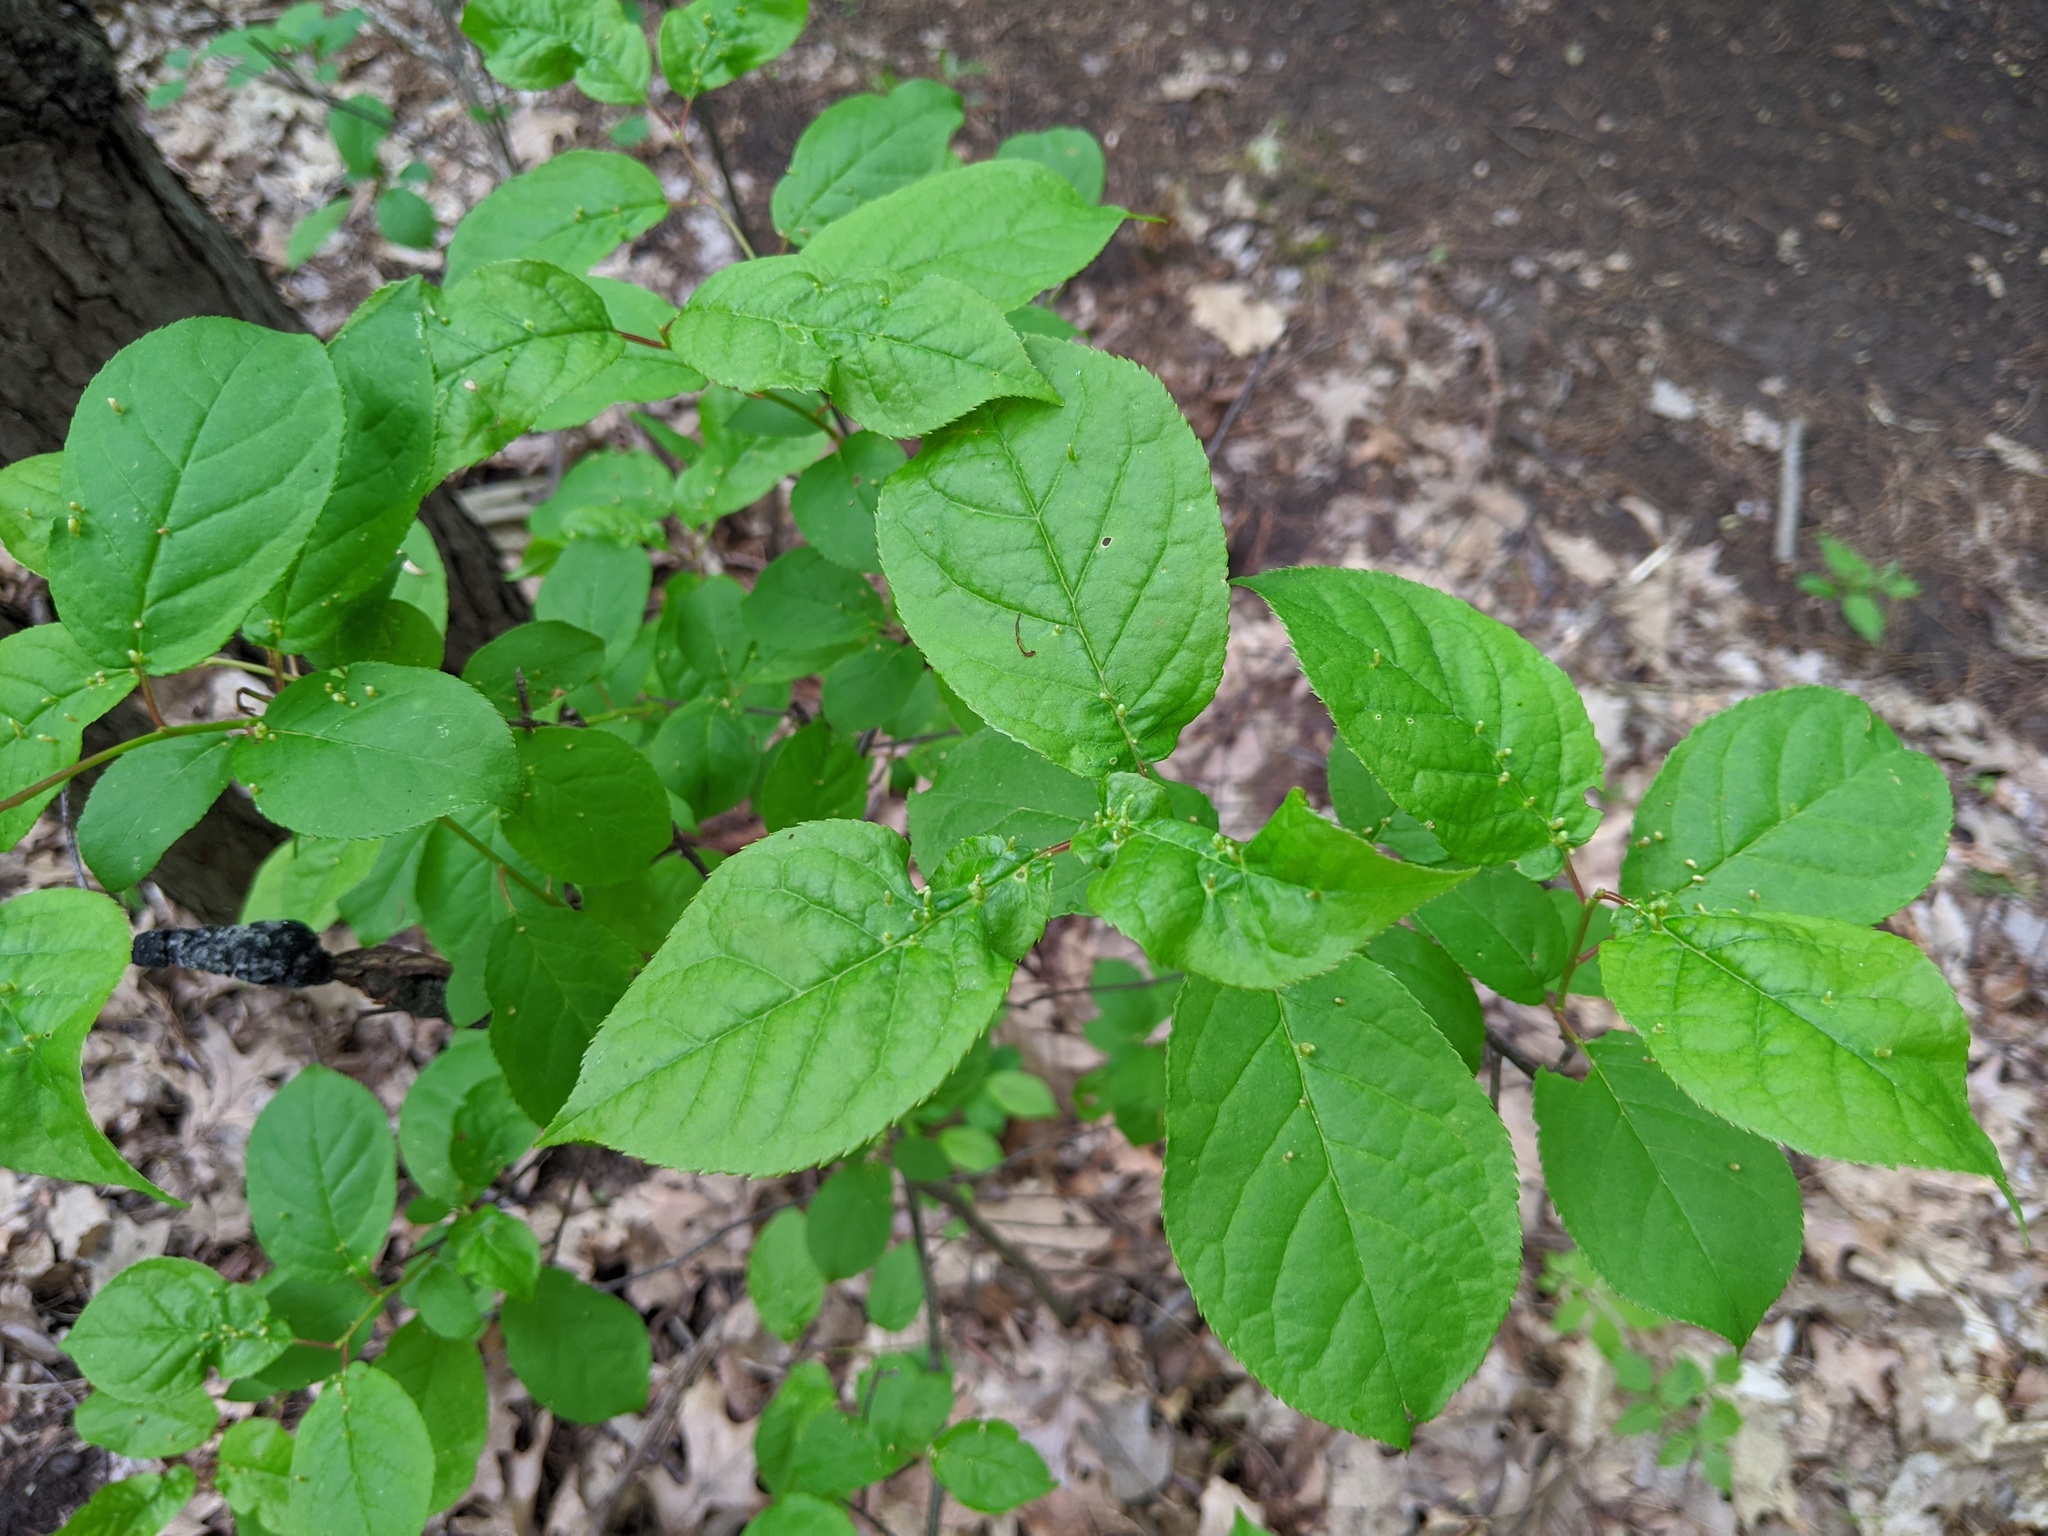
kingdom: Animalia
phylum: Arthropoda
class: Arachnida
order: Trombidiformes
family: Eriophyidae
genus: Eriophyes
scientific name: Eriophyes emarginatae
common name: Plum leaf gall mite
